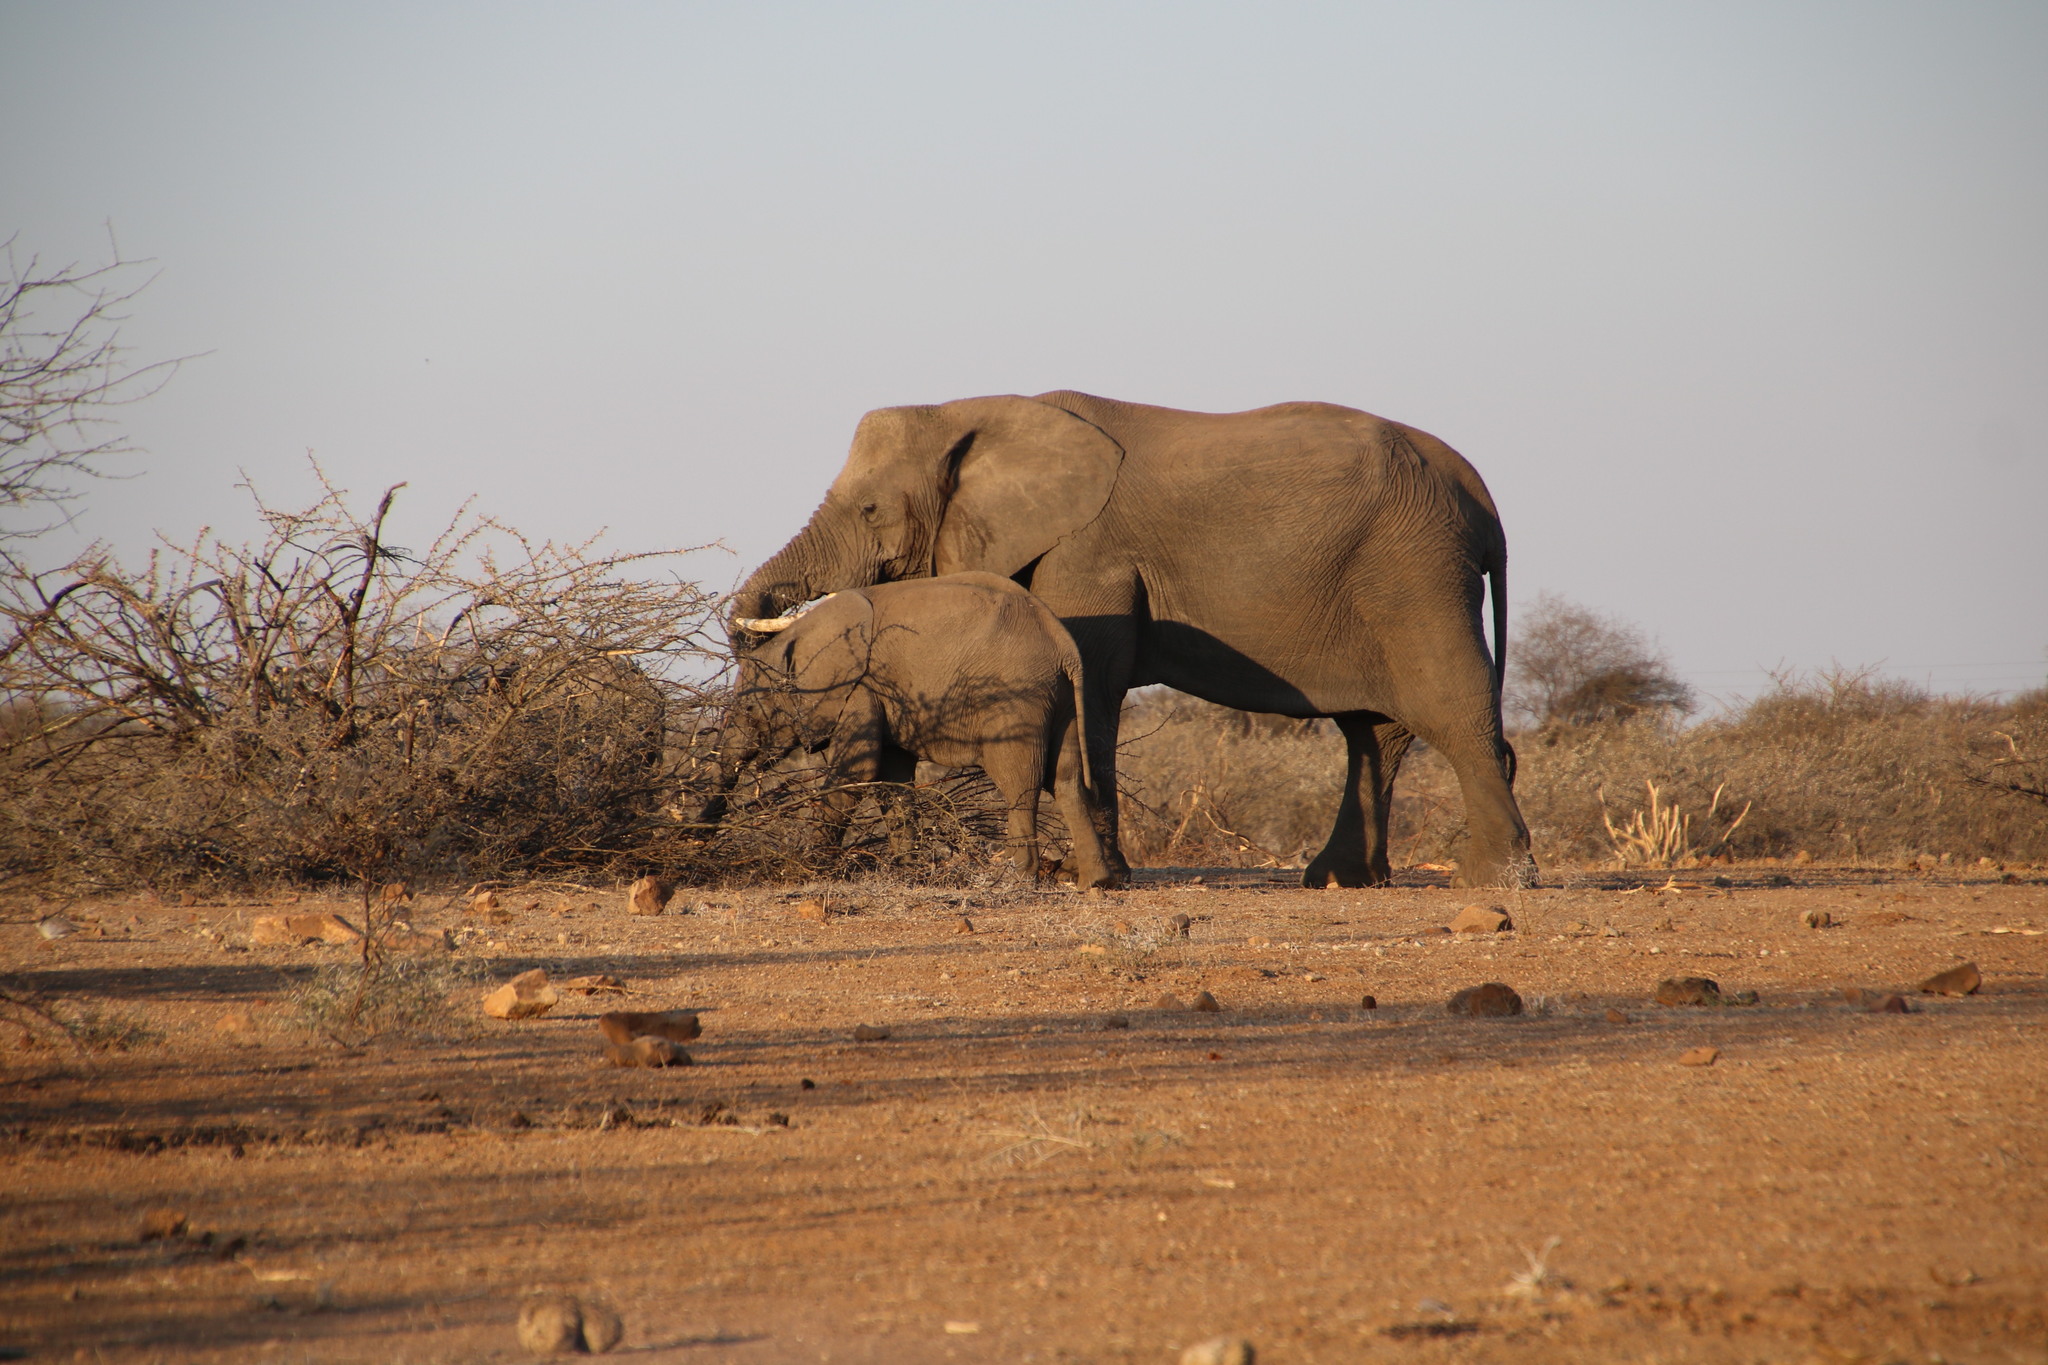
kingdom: Animalia
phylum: Chordata
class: Mammalia
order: Proboscidea
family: Elephantidae
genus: Loxodonta
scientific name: Loxodonta africana
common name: African elephant
